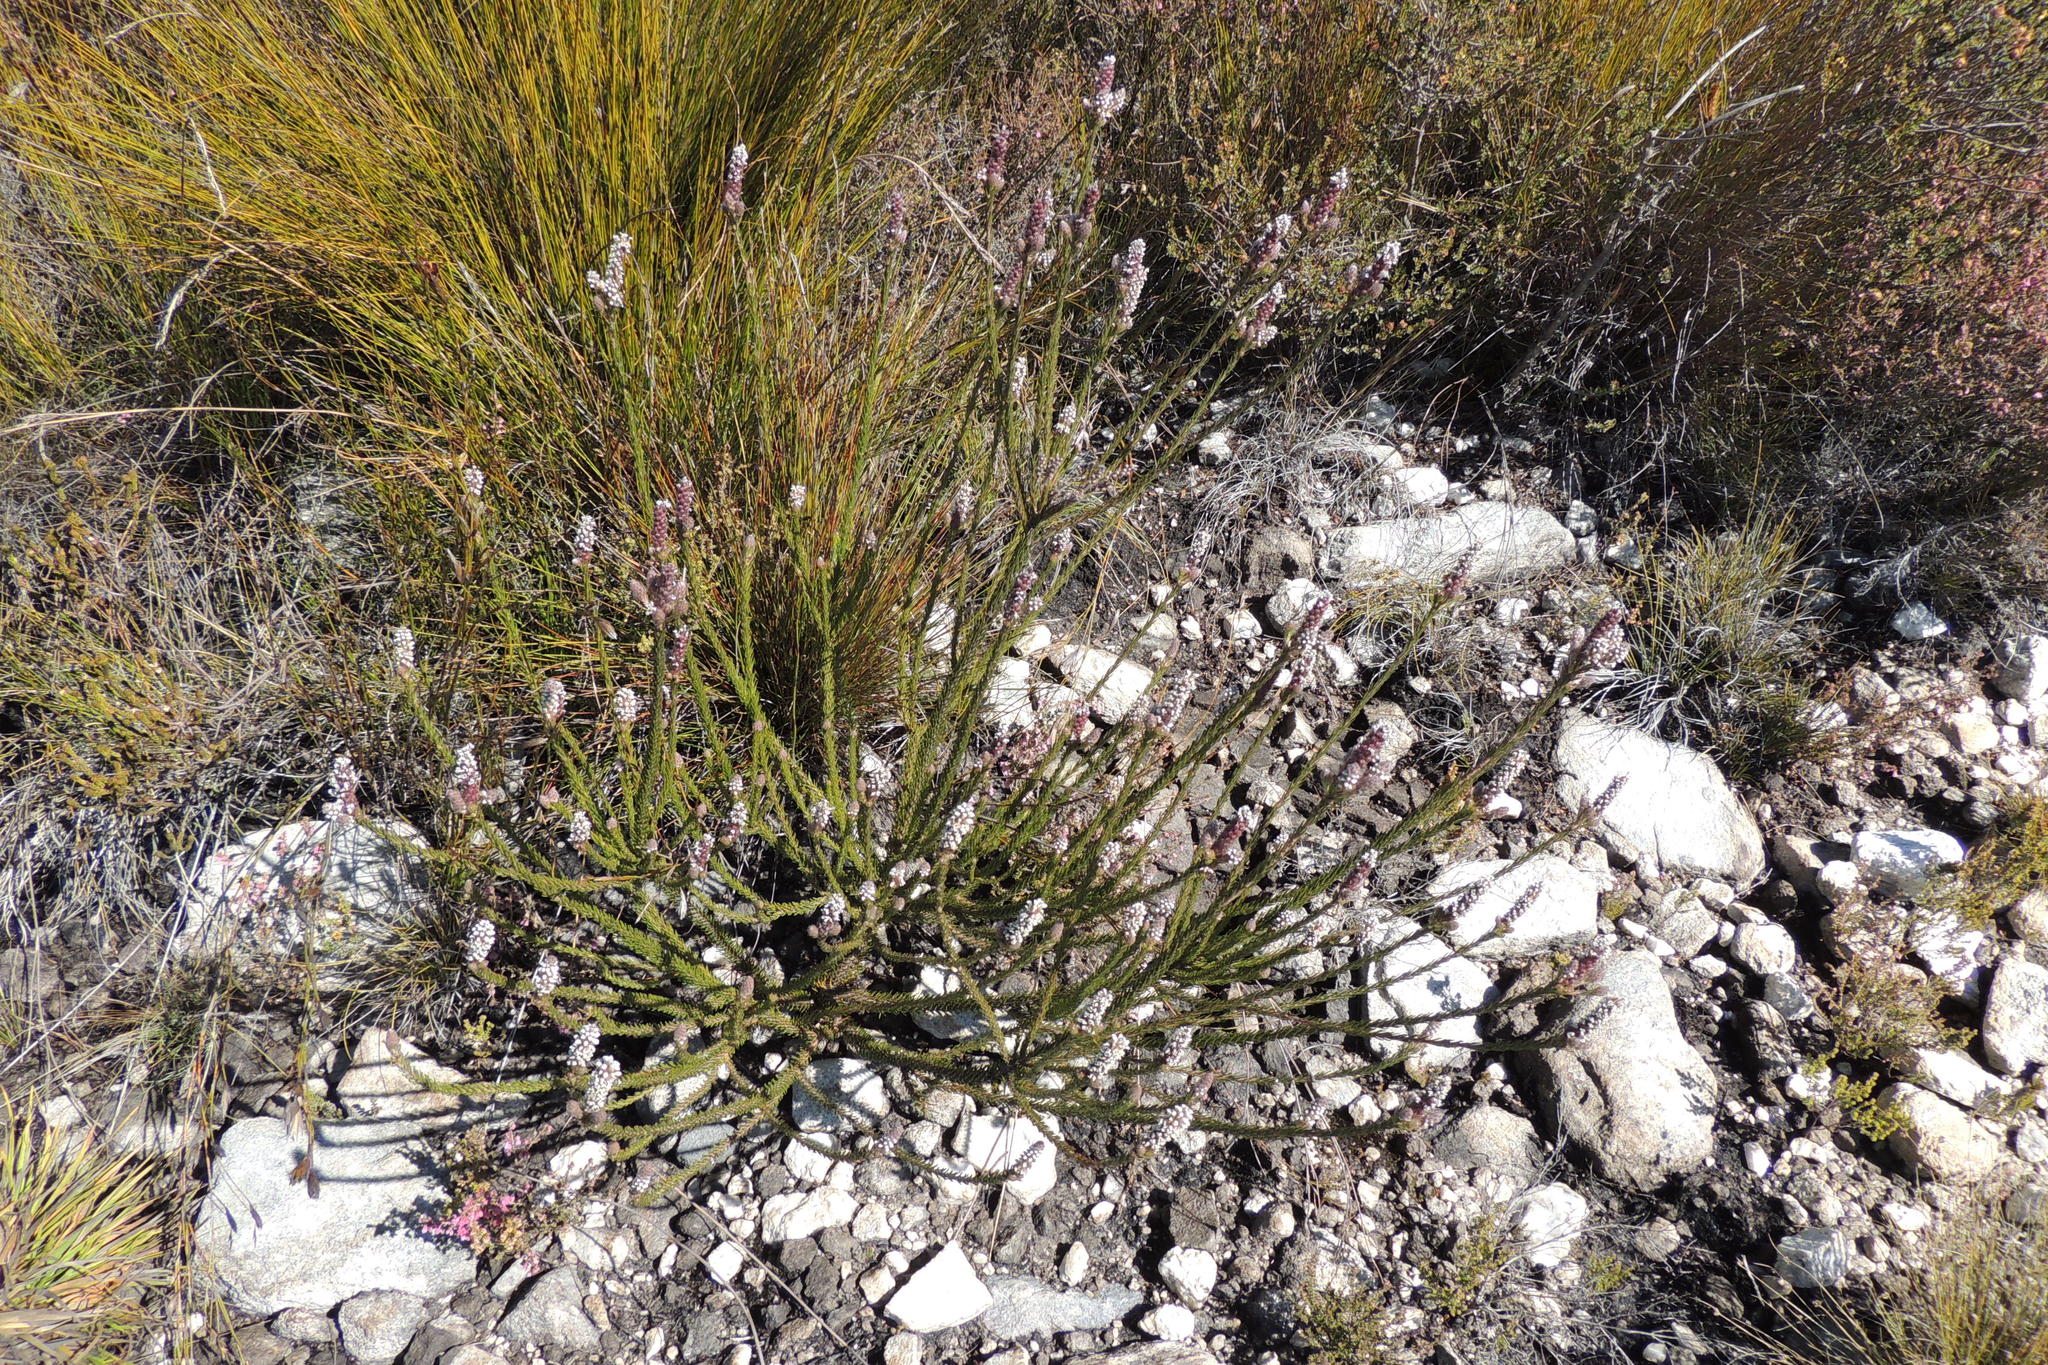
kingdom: Plantae
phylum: Tracheophyta
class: Magnoliopsida
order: Proteales
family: Proteaceae
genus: Spatalla
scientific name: Spatalla parilis
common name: Spike spoon
